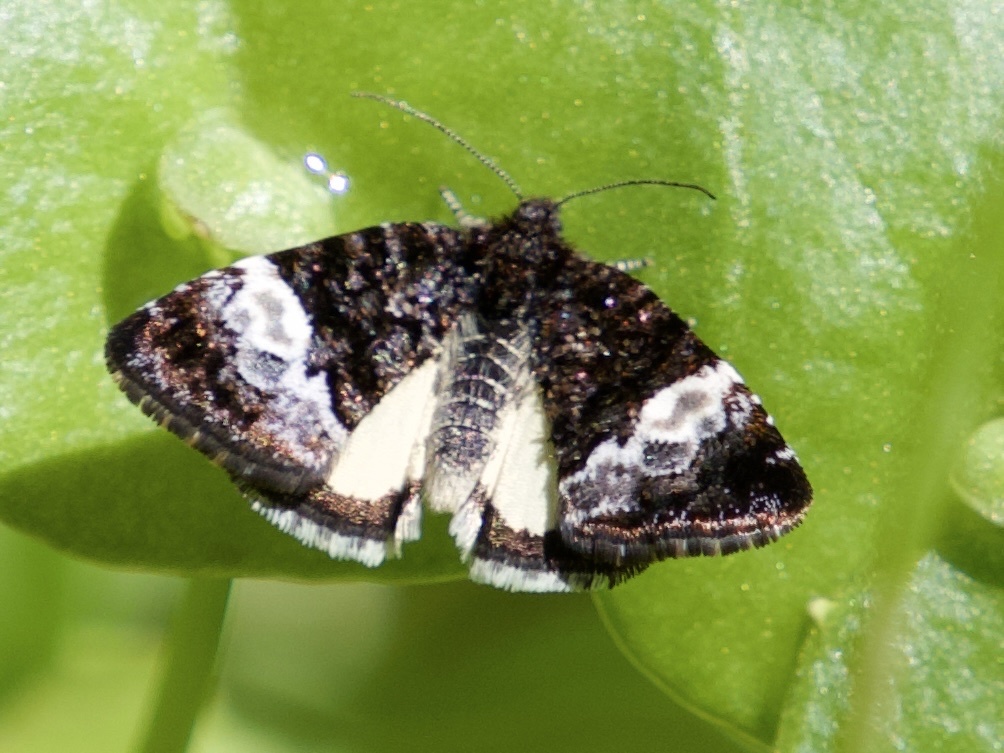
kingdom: Animalia
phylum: Arthropoda
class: Insecta
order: Lepidoptera
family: Noctuidae
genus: Annaphila
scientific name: Annaphila diva
